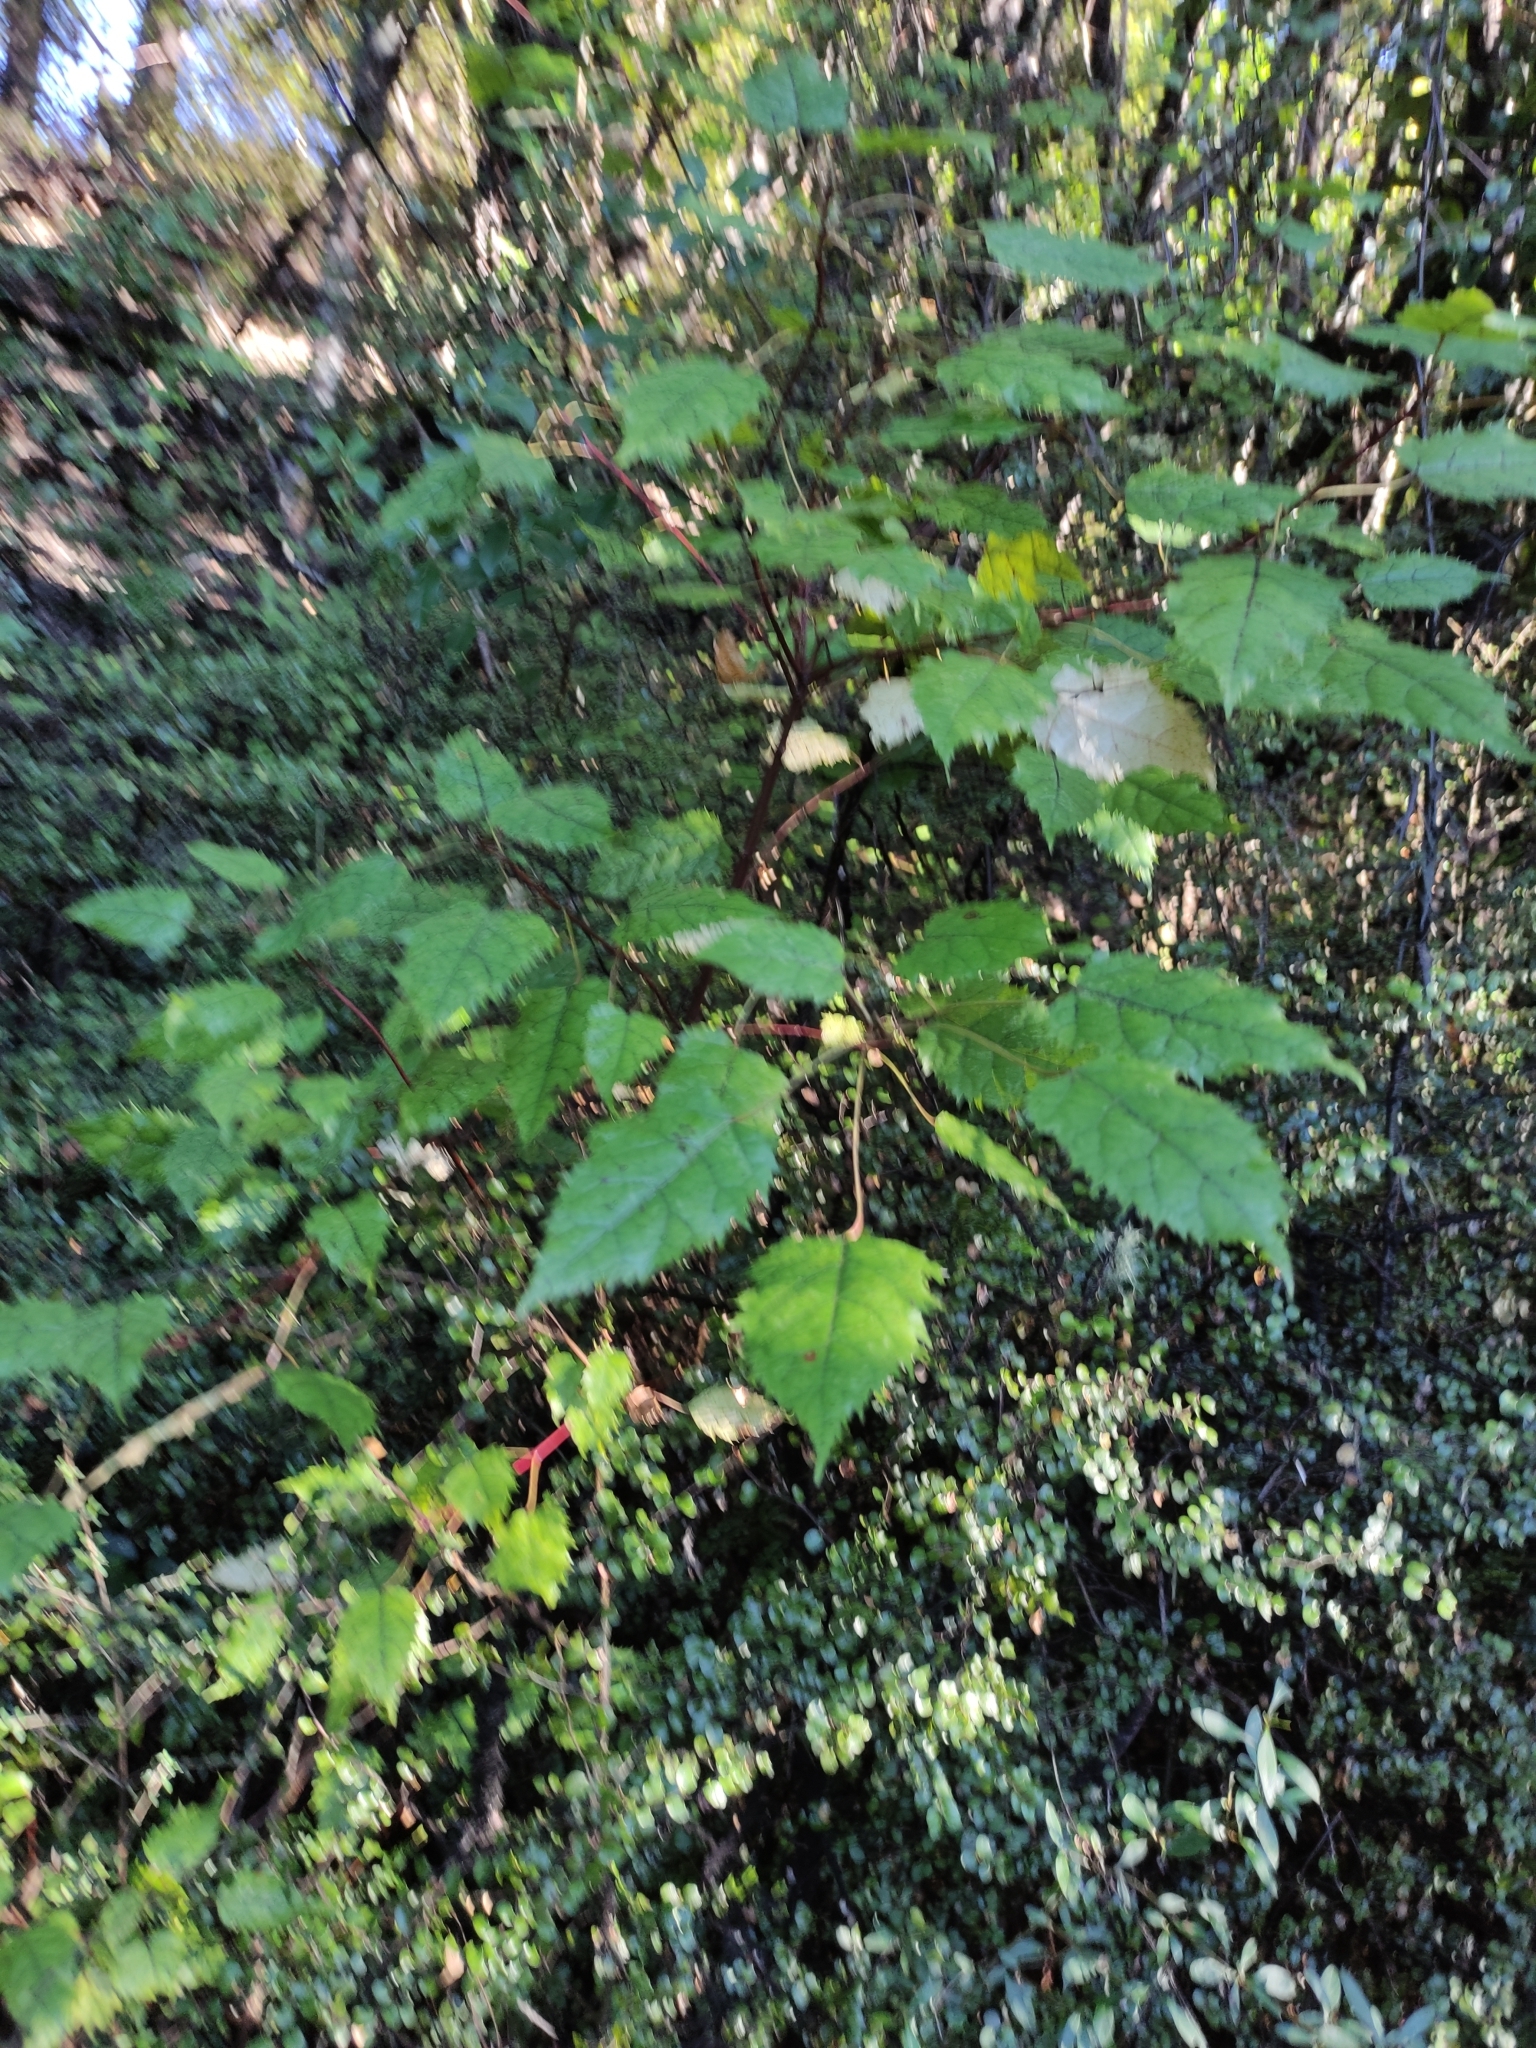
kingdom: Plantae
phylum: Tracheophyta
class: Magnoliopsida
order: Oxalidales
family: Elaeocarpaceae
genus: Aristotelia
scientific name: Aristotelia serrata
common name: New zealand wineberry
